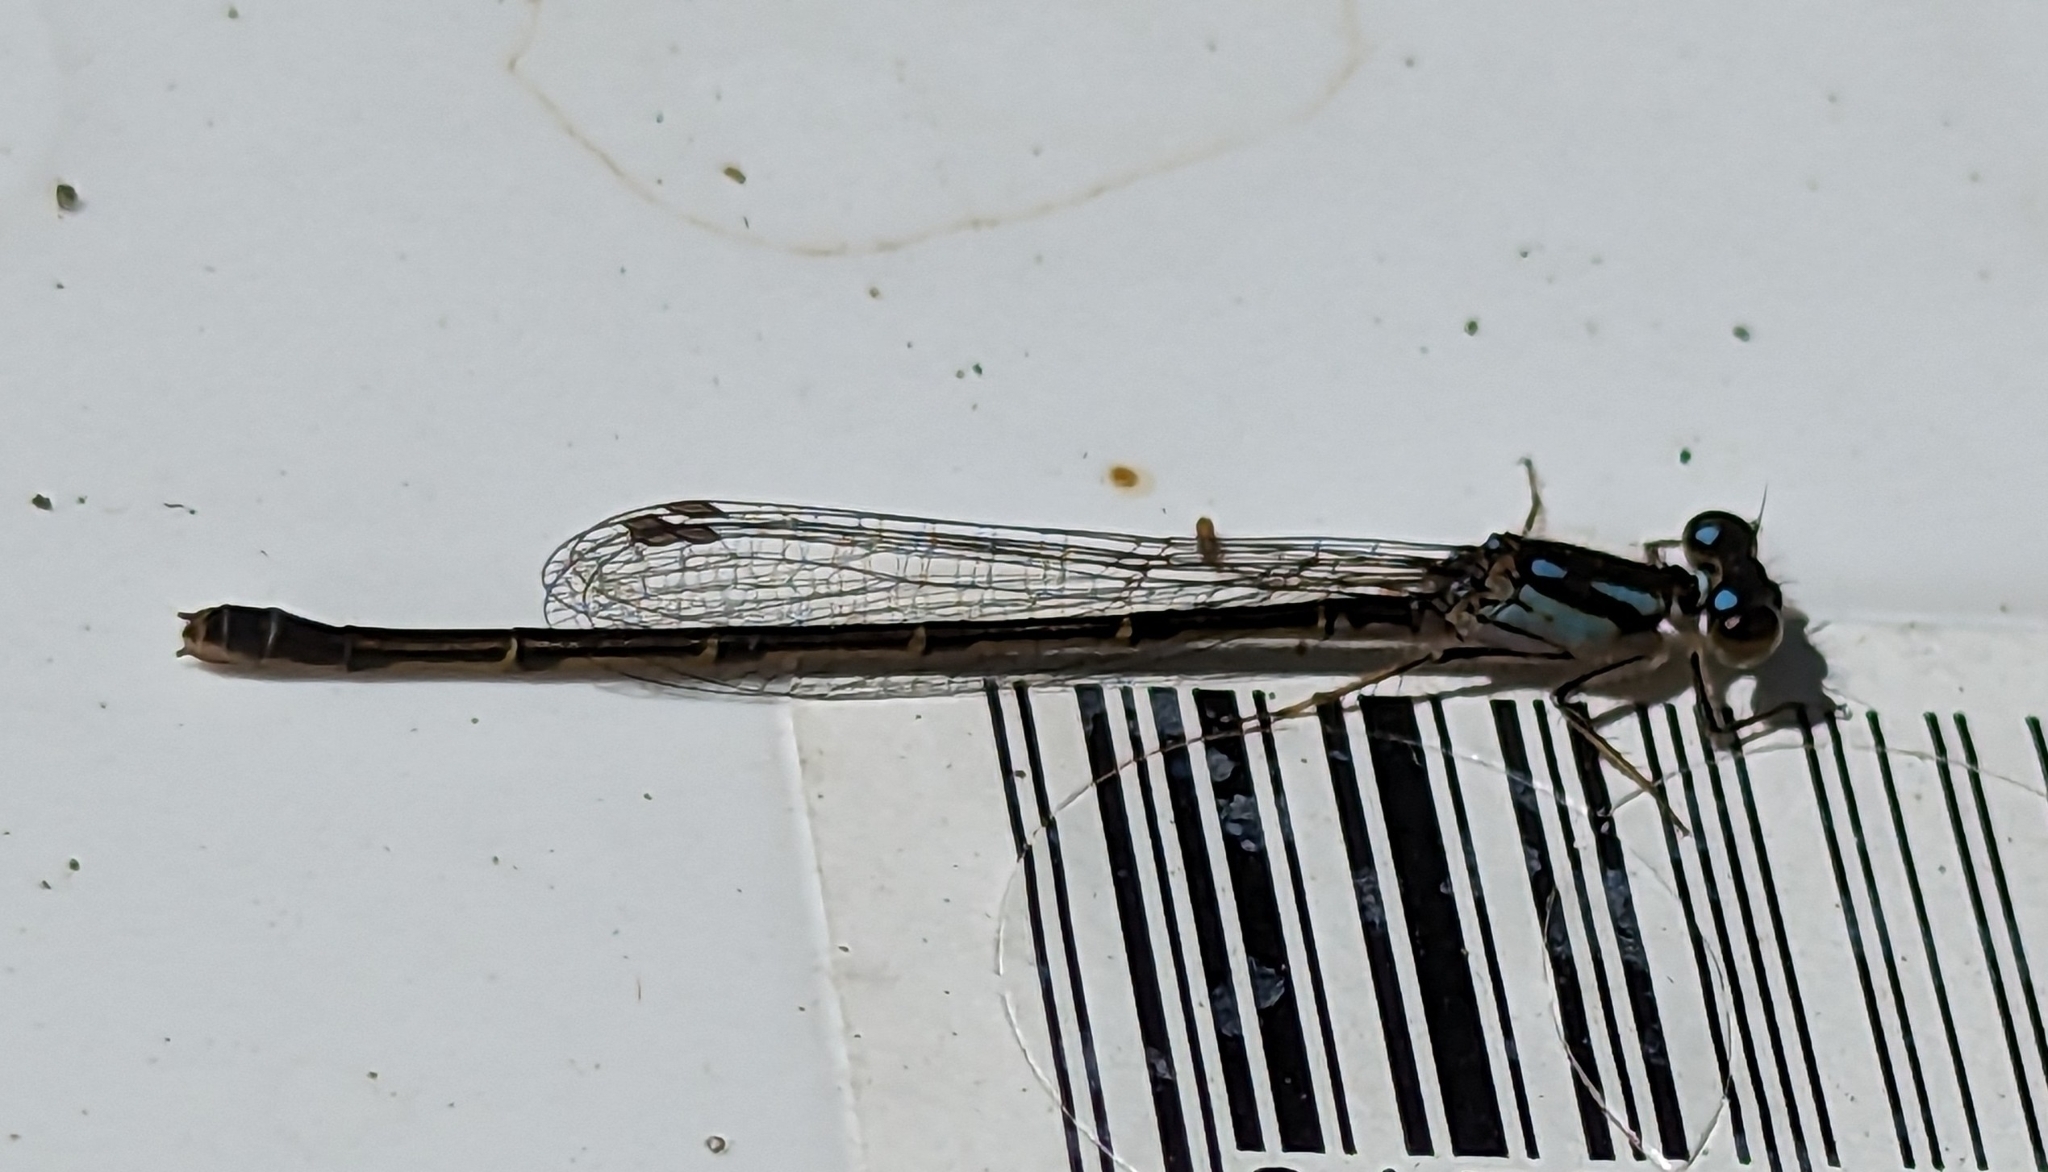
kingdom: Animalia
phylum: Arthropoda
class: Insecta
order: Odonata
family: Coenagrionidae
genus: Ischnura
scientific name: Ischnura posita
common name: Fragile forktail
